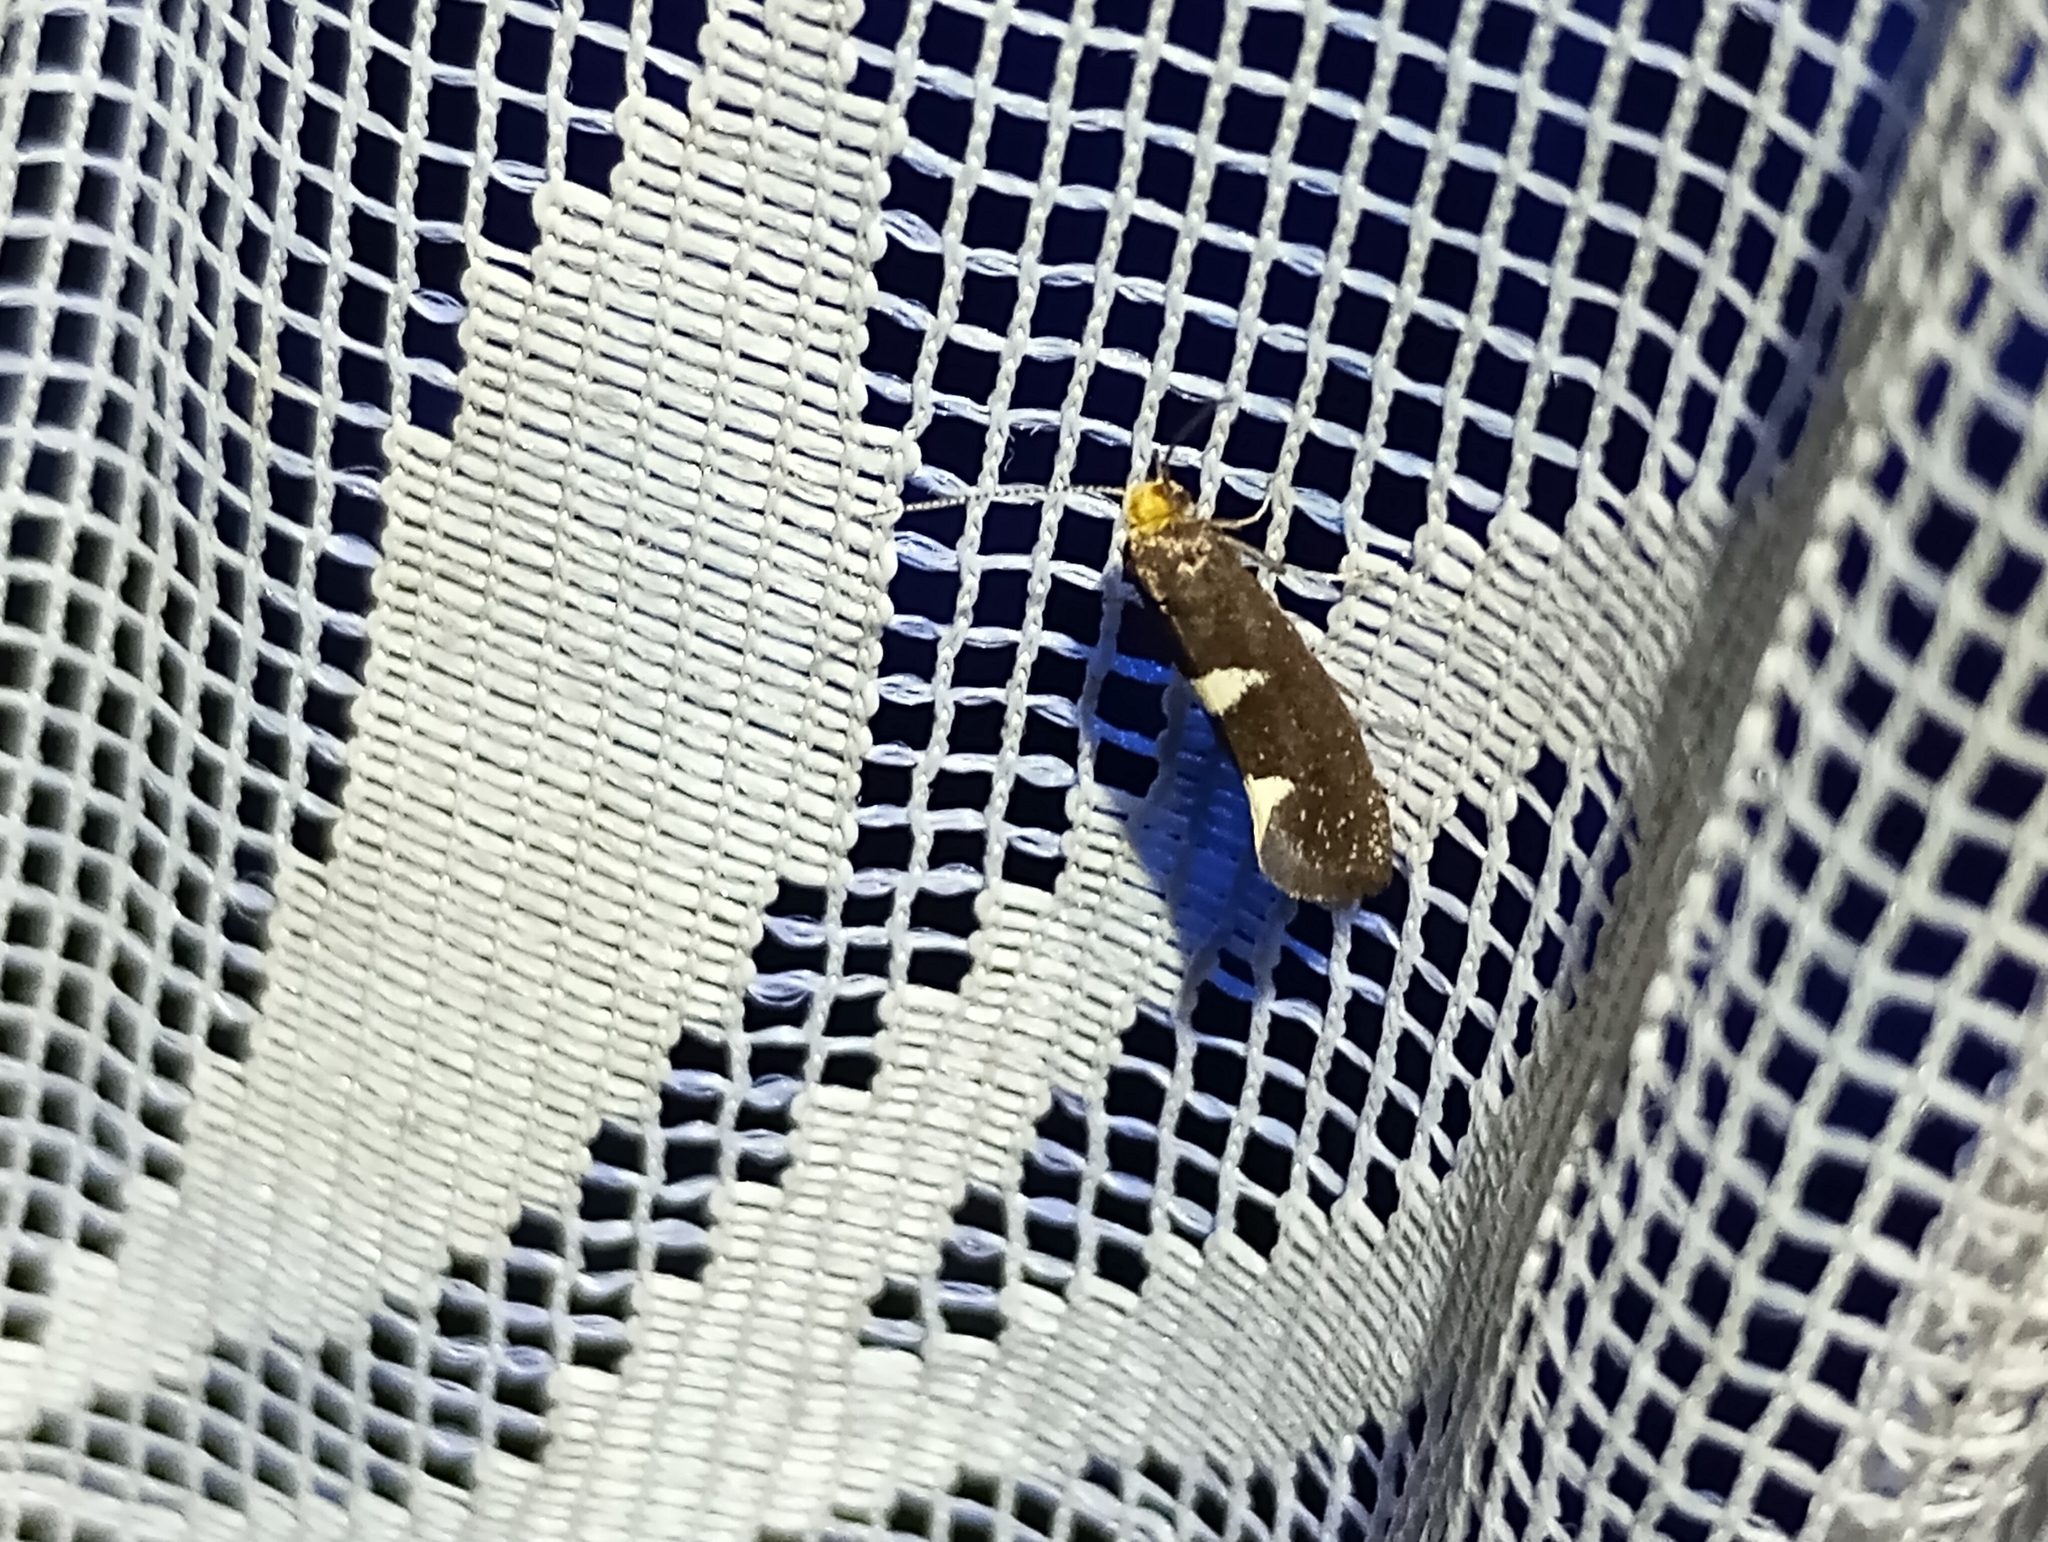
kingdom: Animalia
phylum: Arthropoda
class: Insecta
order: Lepidoptera
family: Incurvariidae
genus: Incurvaria
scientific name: Incurvaria masculella
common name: Feathered leaf-cutter
